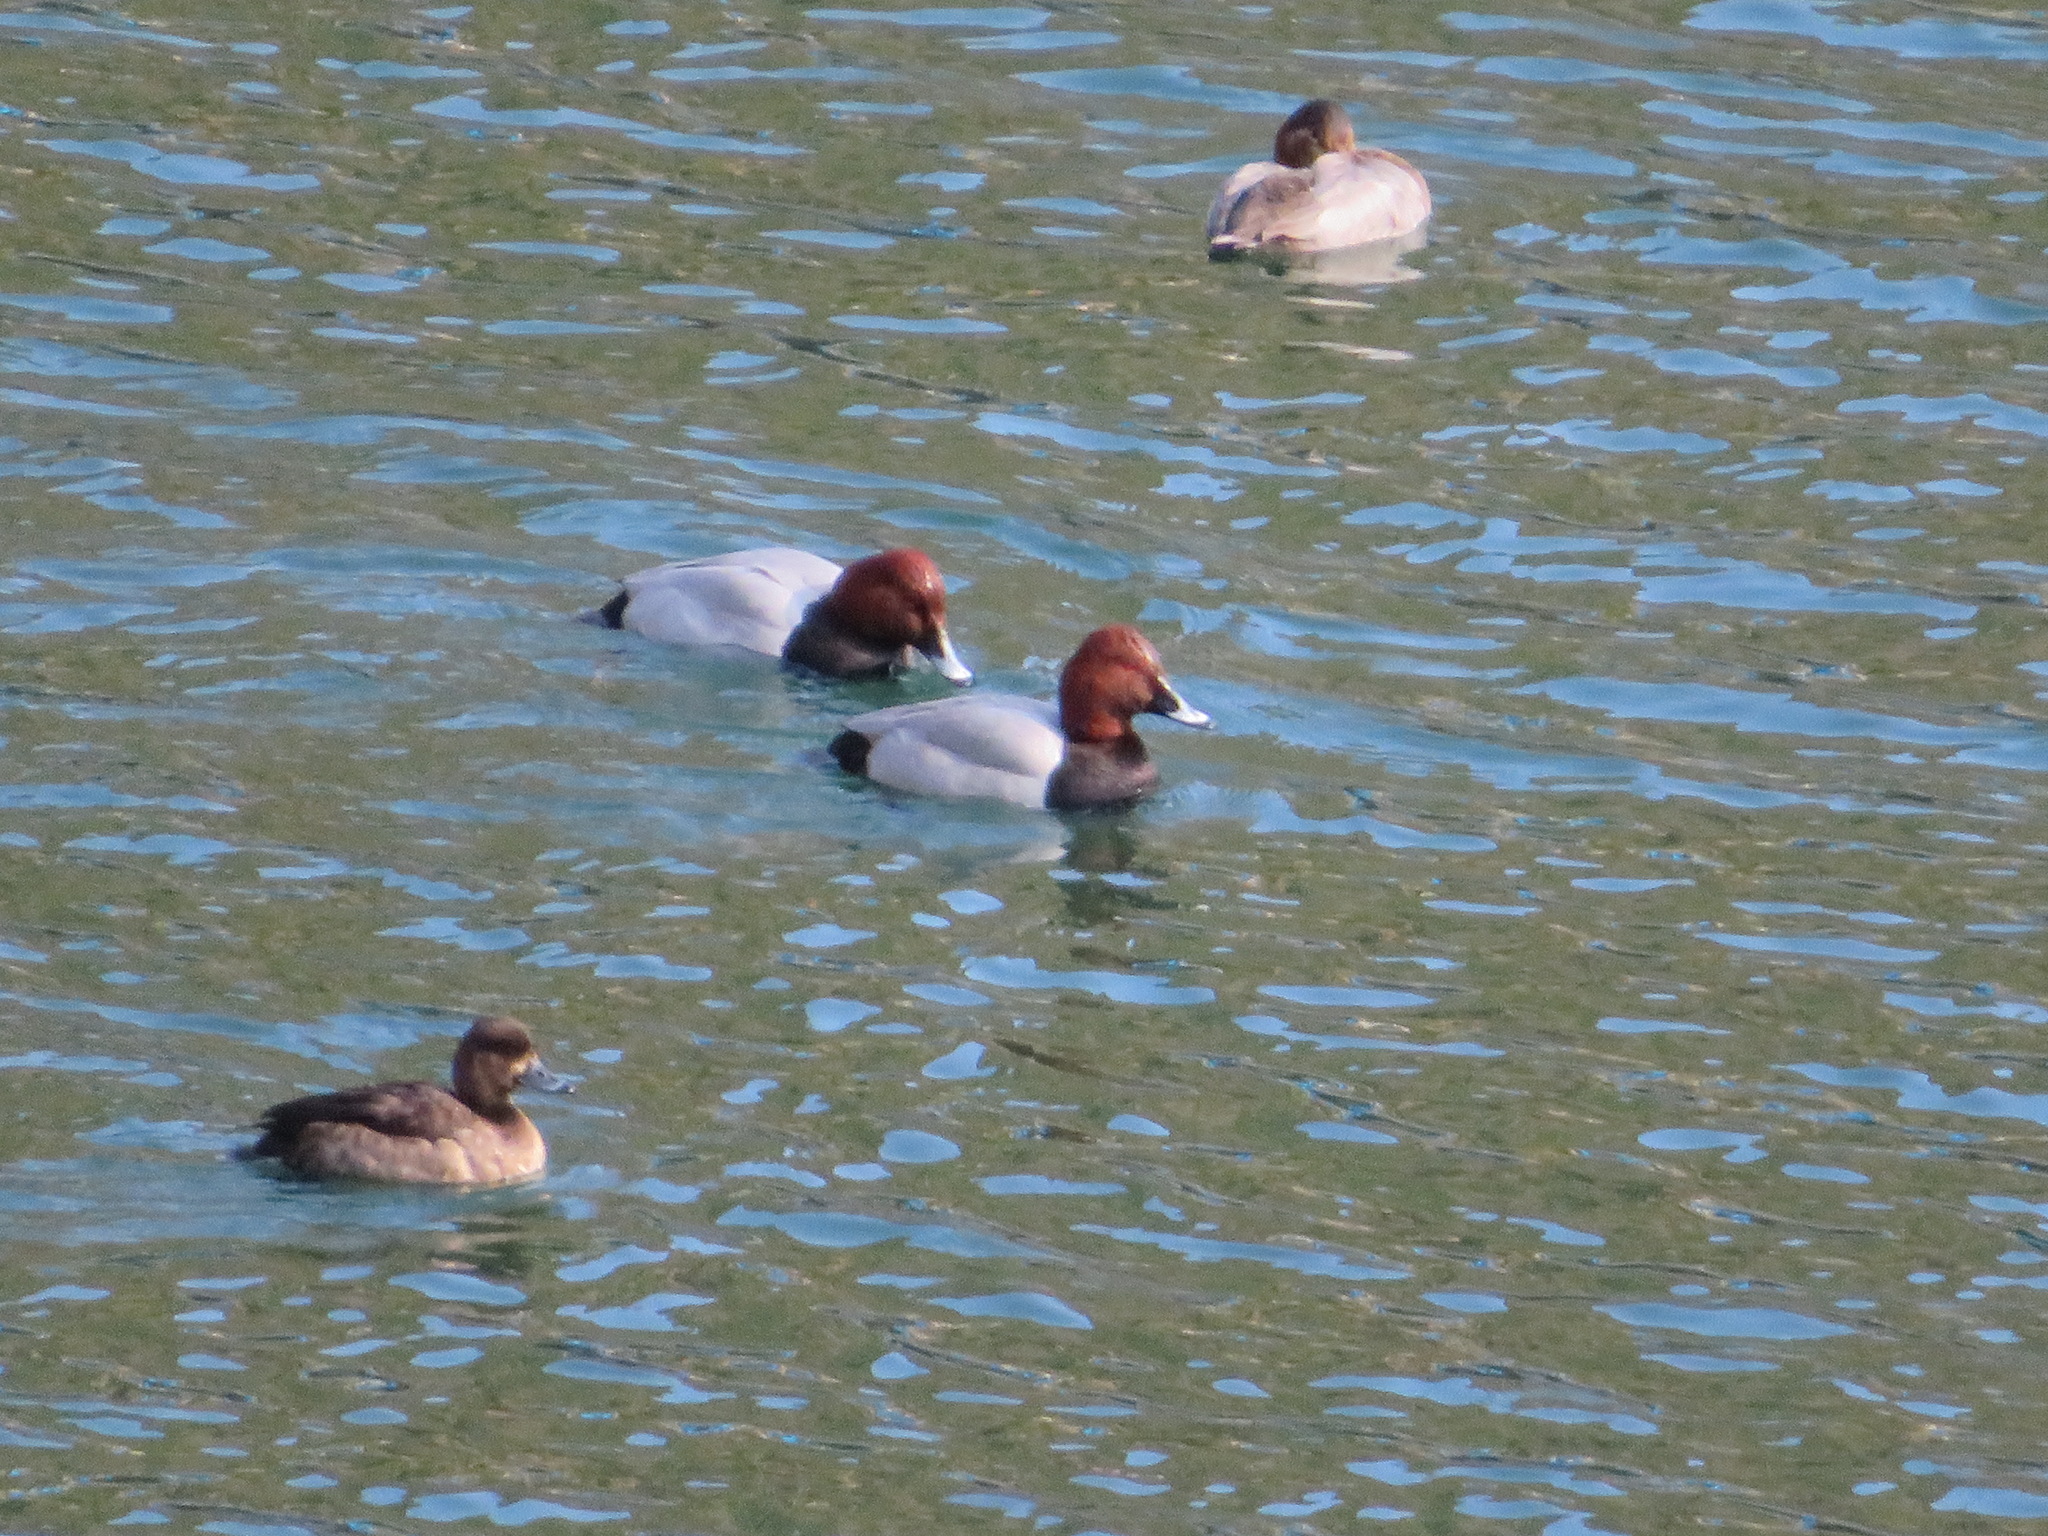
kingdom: Animalia
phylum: Chordata
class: Aves
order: Anseriformes
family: Anatidae
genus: Aythya
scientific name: Aythya ferina
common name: Common pochard
